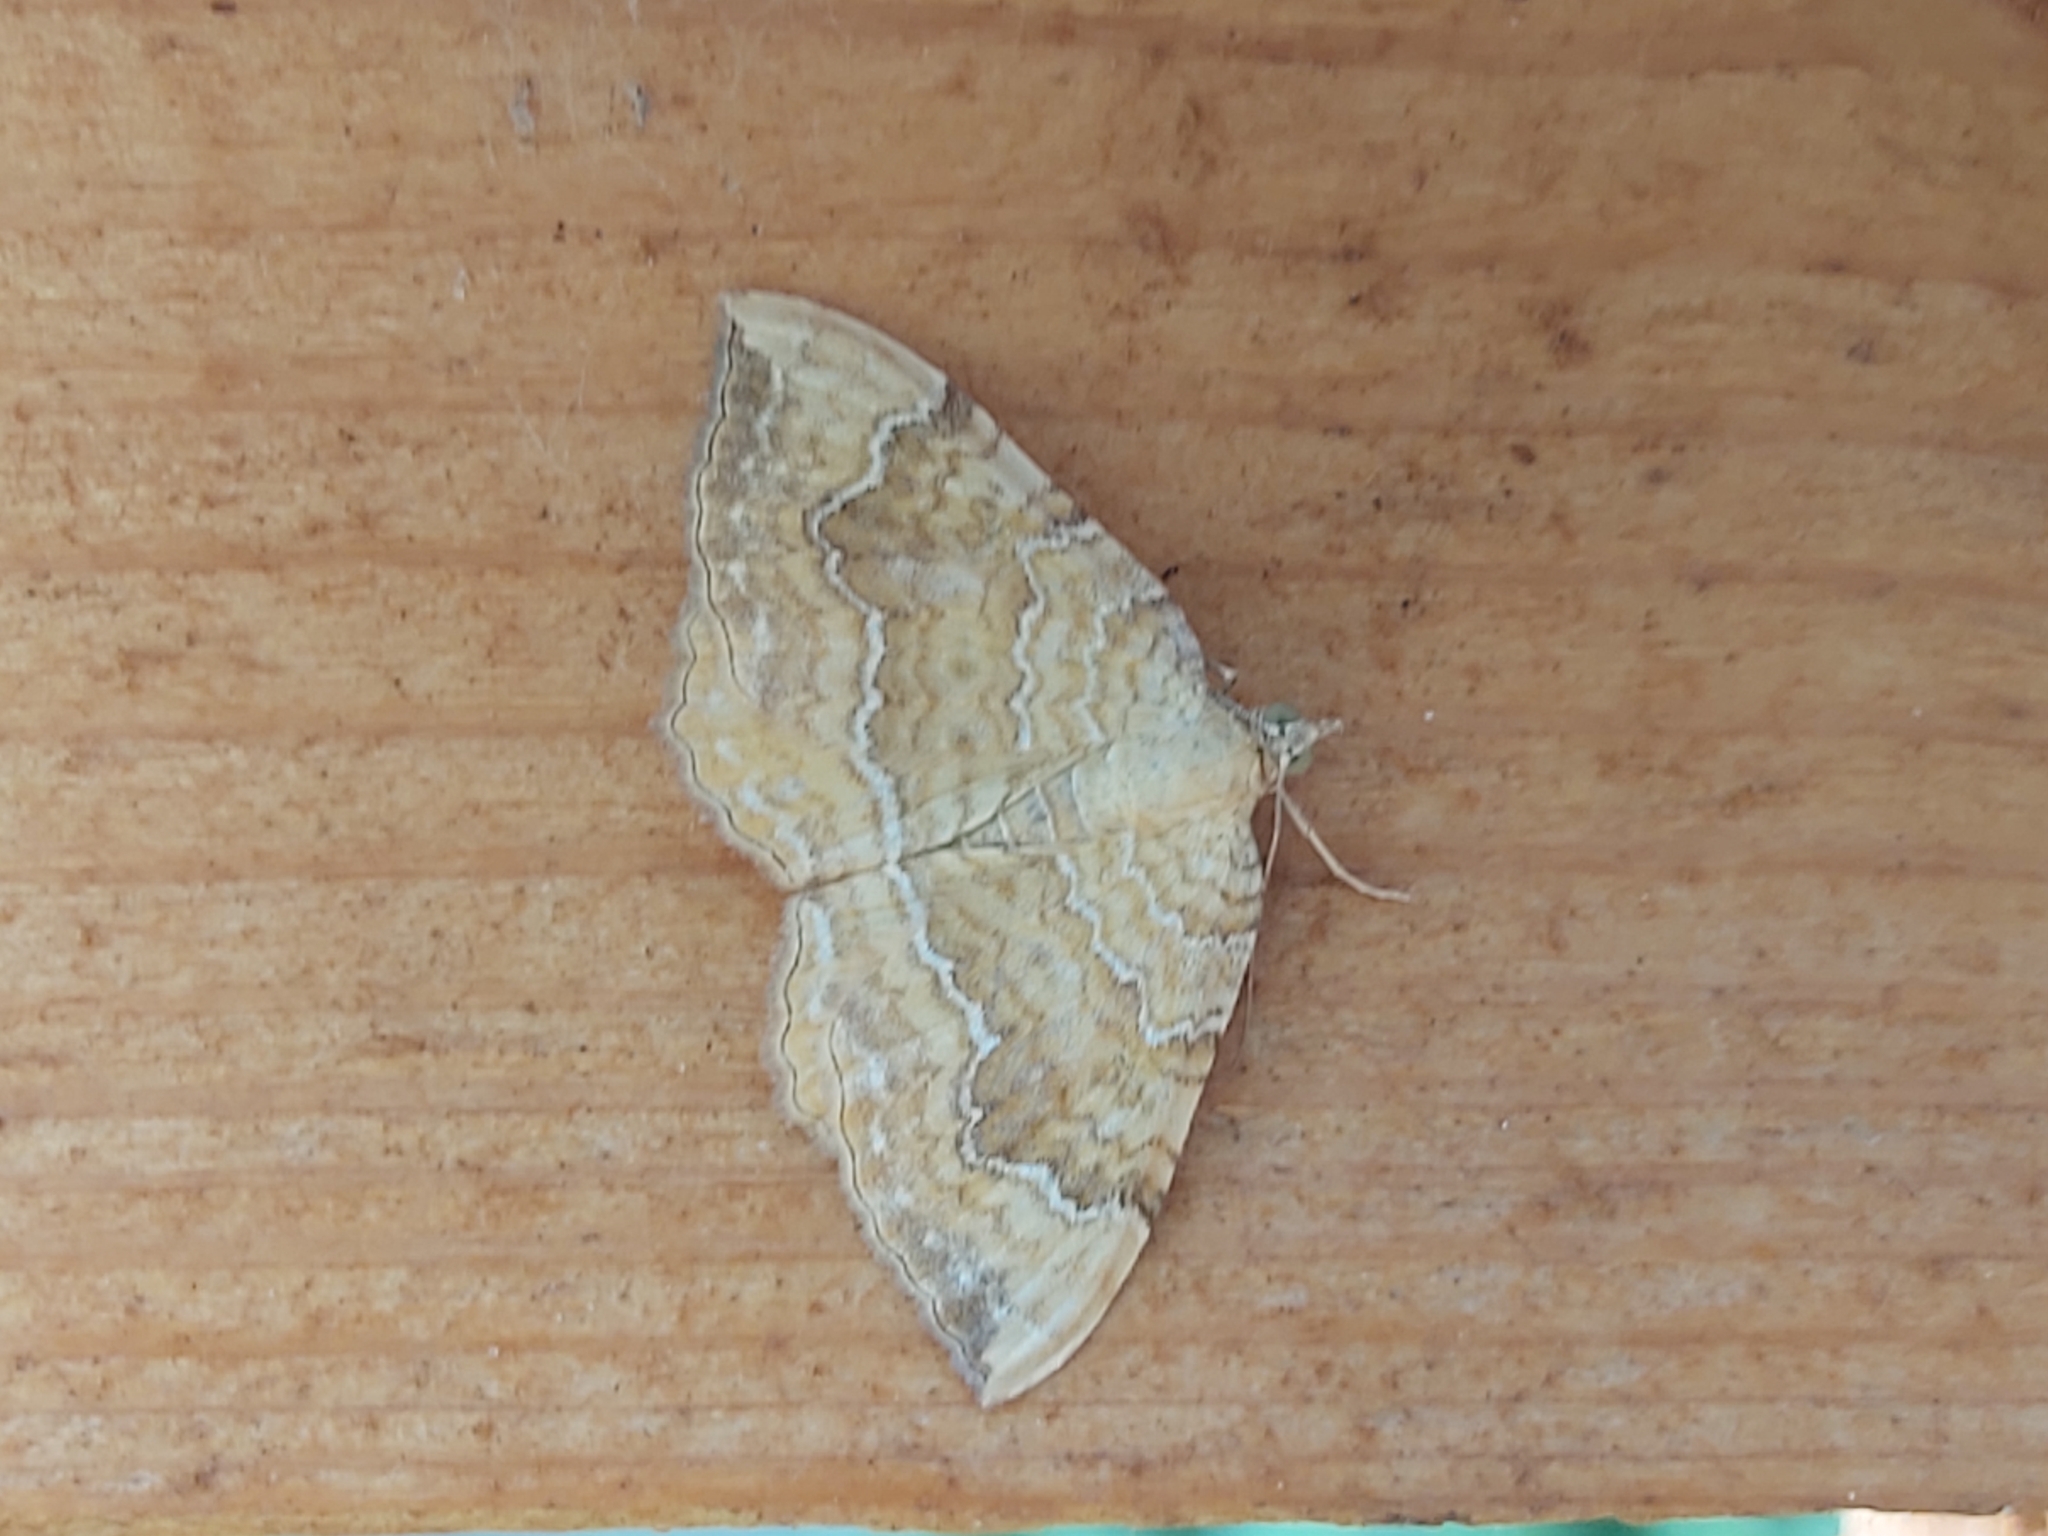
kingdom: Animalia
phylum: Arthropoda
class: Insecta
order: Lepidoptera
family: Geometridae
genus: Camptogramma
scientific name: Camptogramma bilineata
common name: Yellow shell
